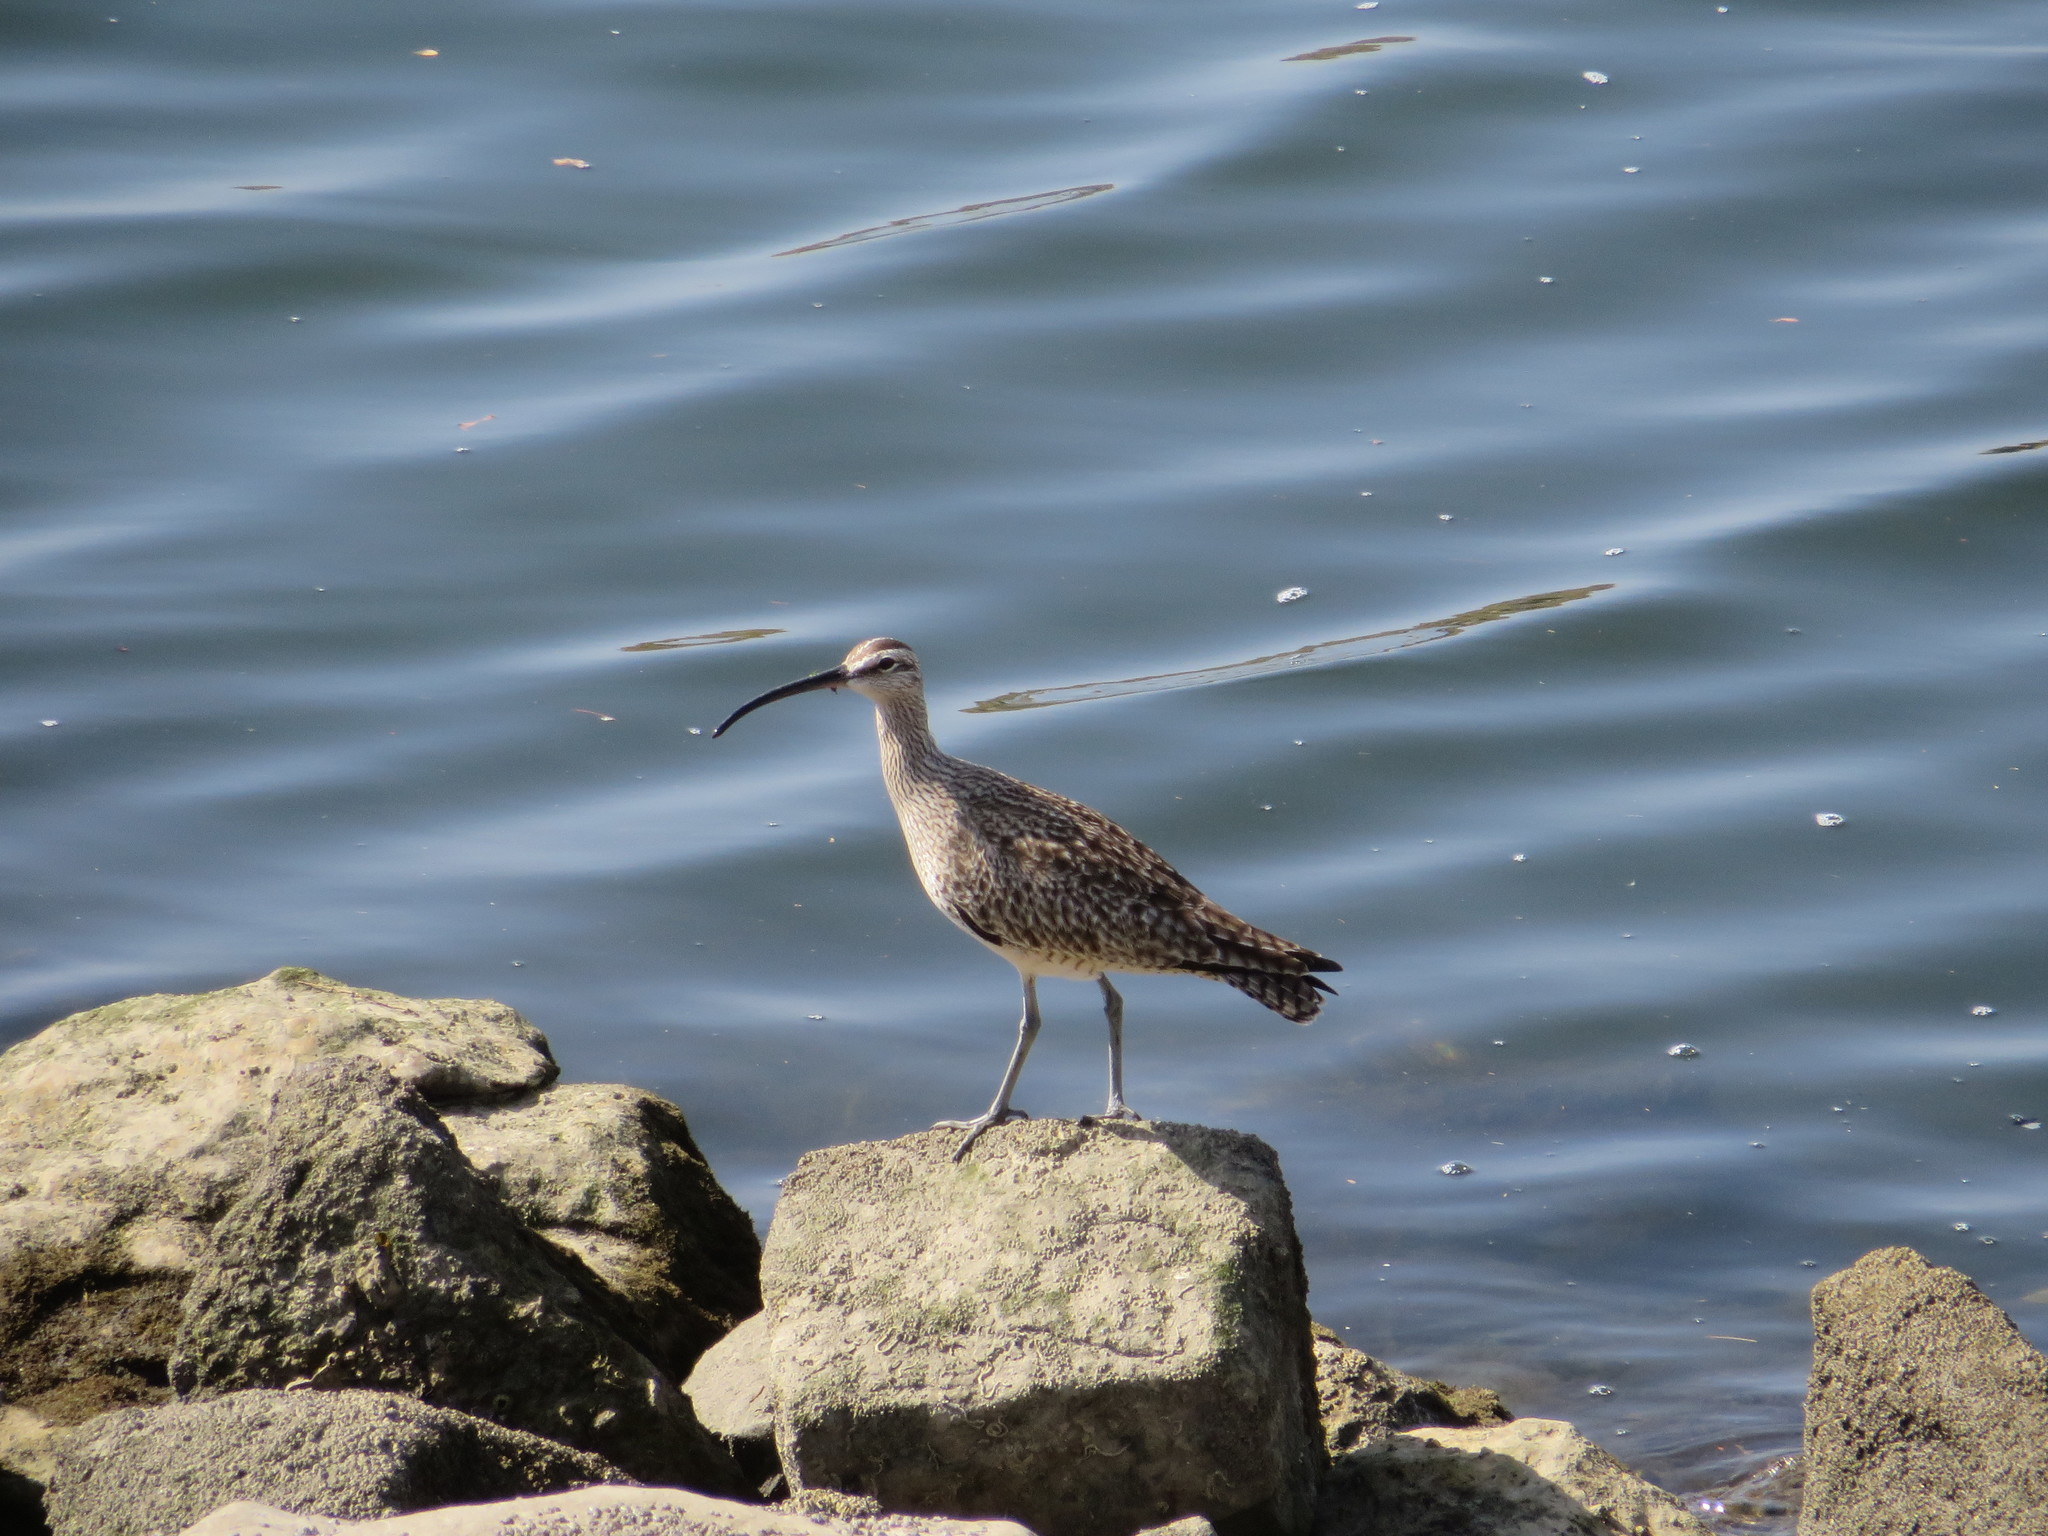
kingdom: Animalia
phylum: Chordata
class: Aves
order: Charadriiformes
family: Scolopacidae
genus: Numenius
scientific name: Numenius phaeopus
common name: Whimbrel
